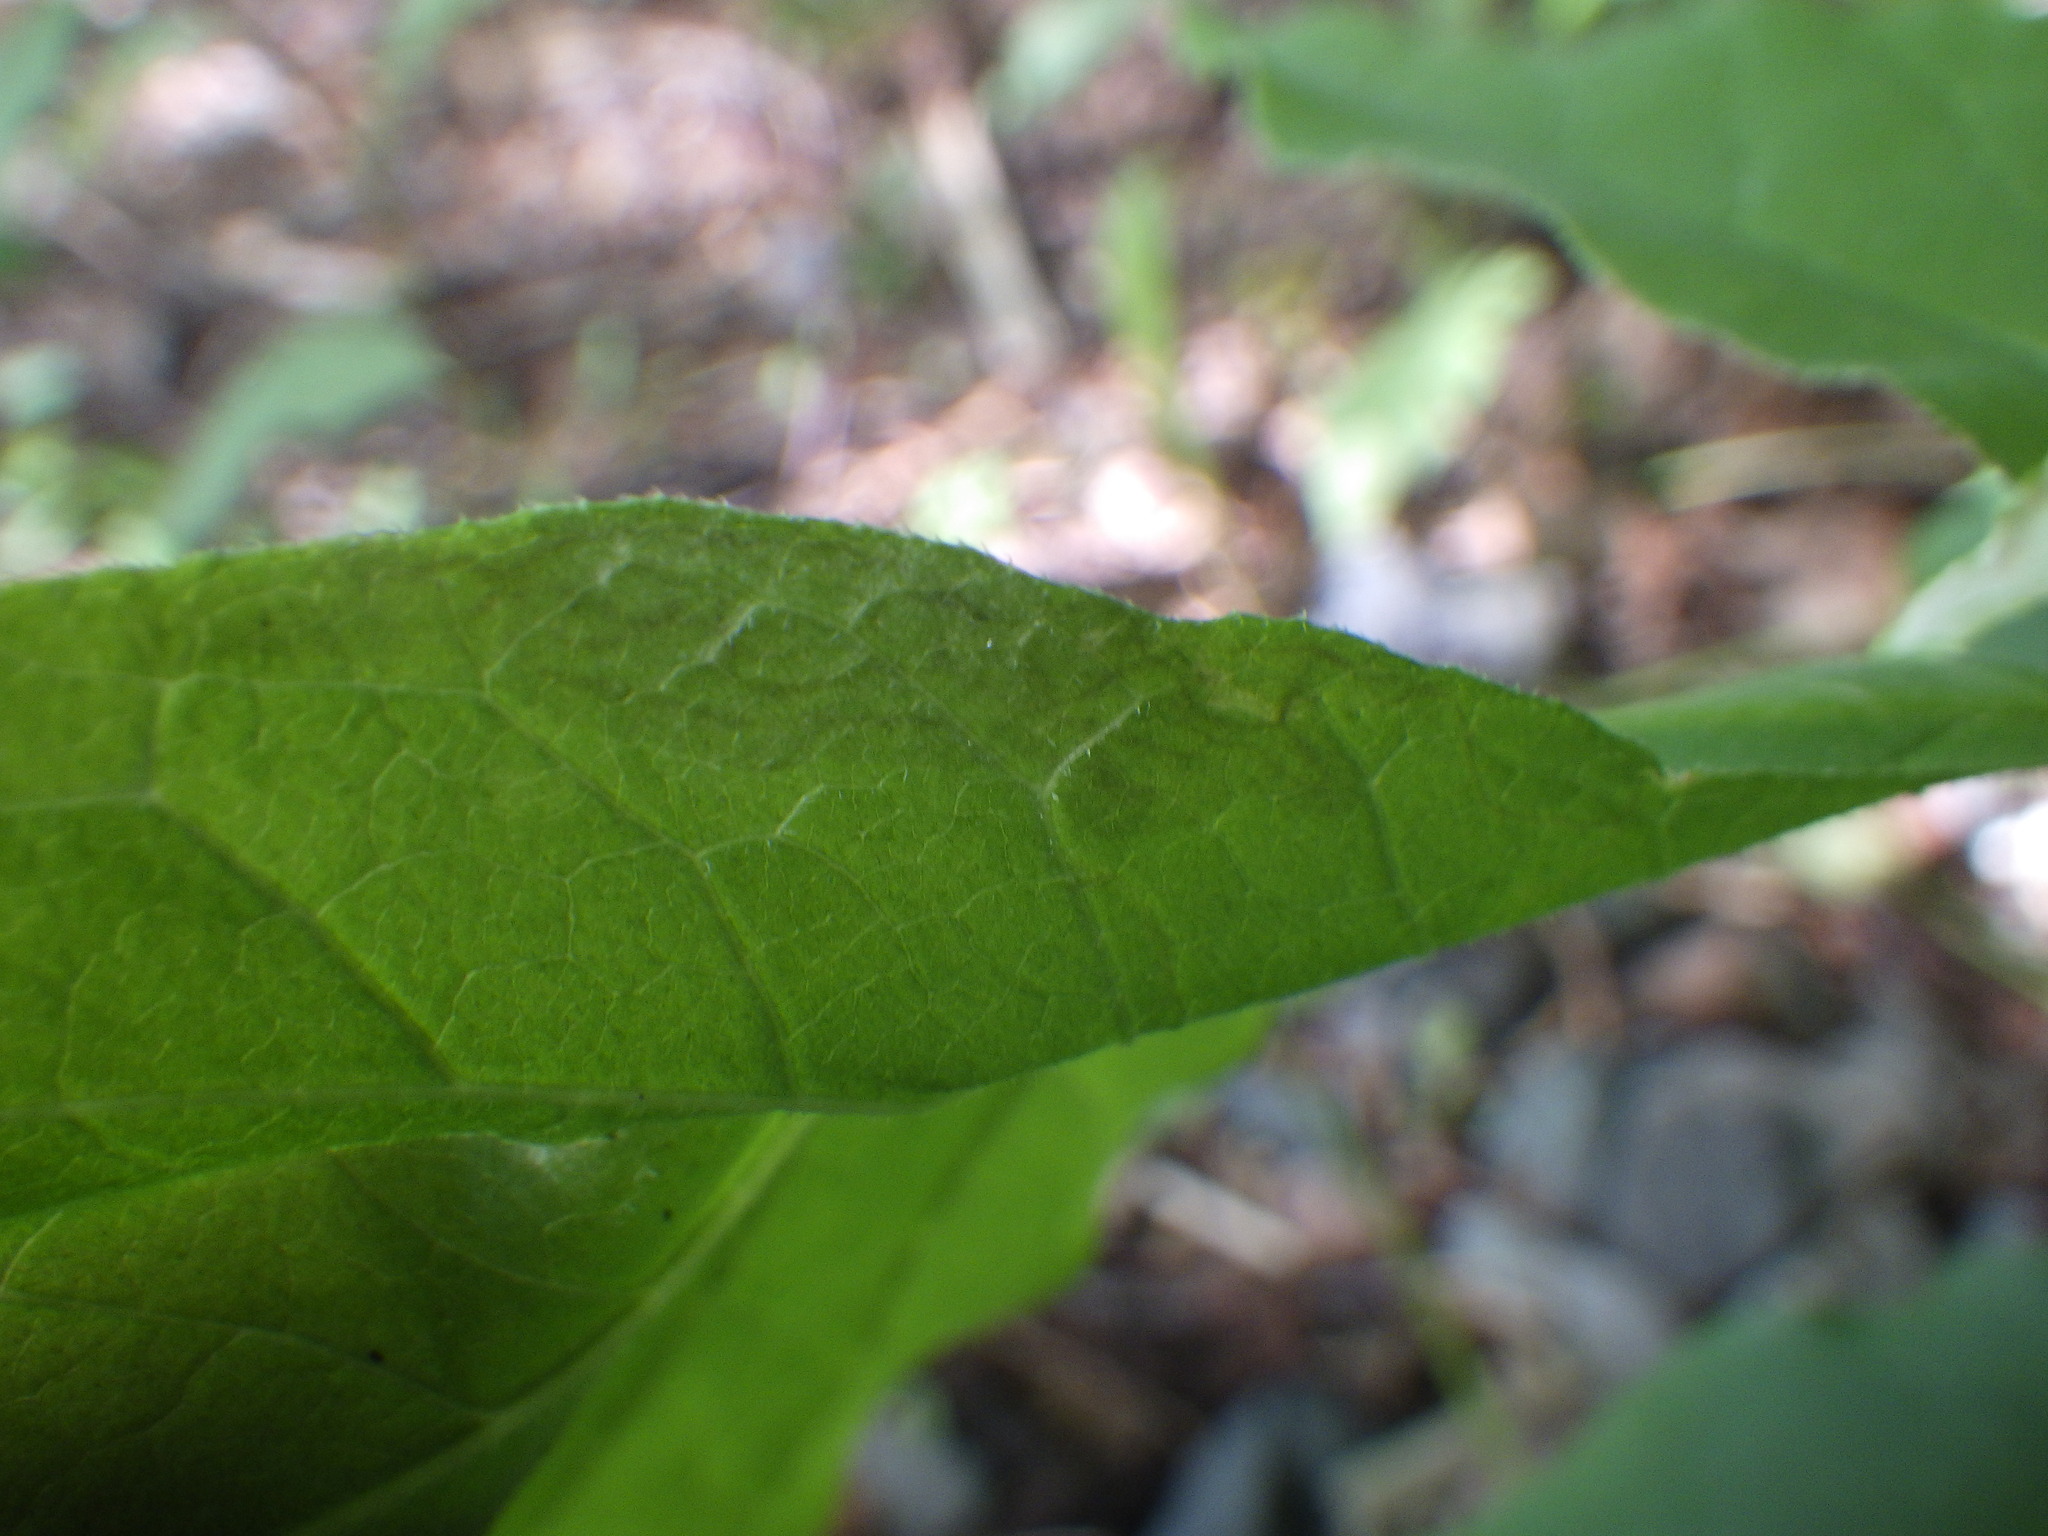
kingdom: Animalia
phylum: Arthropoda
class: Insecta
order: Lepidoptera
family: Gracillariidae
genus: Caloptilia
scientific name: Caloptilia fraxinella
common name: Ash leaf cone roller
